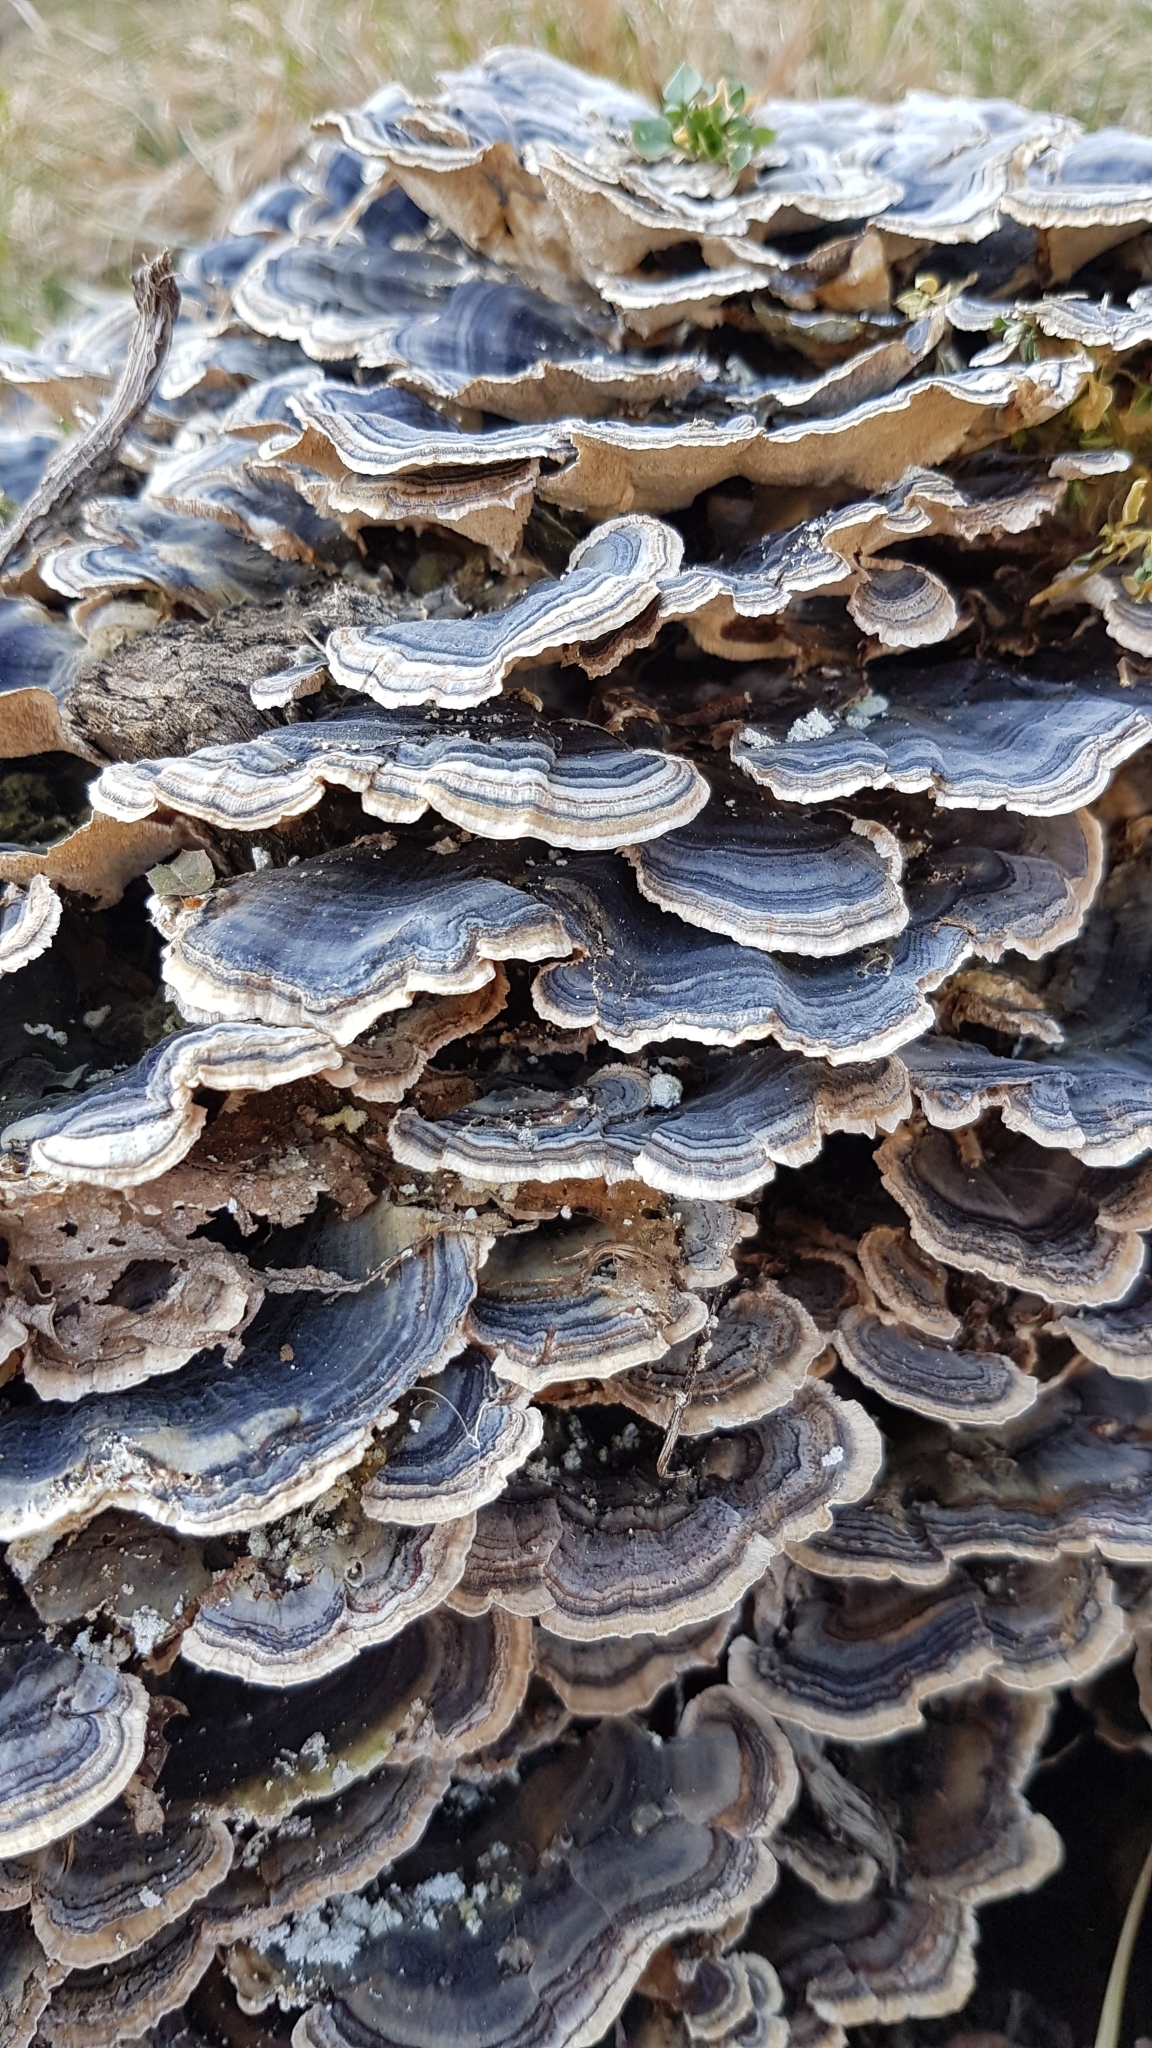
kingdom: Fungi
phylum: Basidiomycota
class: Agaricomycetes
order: Polyporales
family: Polyporaceae
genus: Trametes
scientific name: Trametes versicolor
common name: Turkeytail
